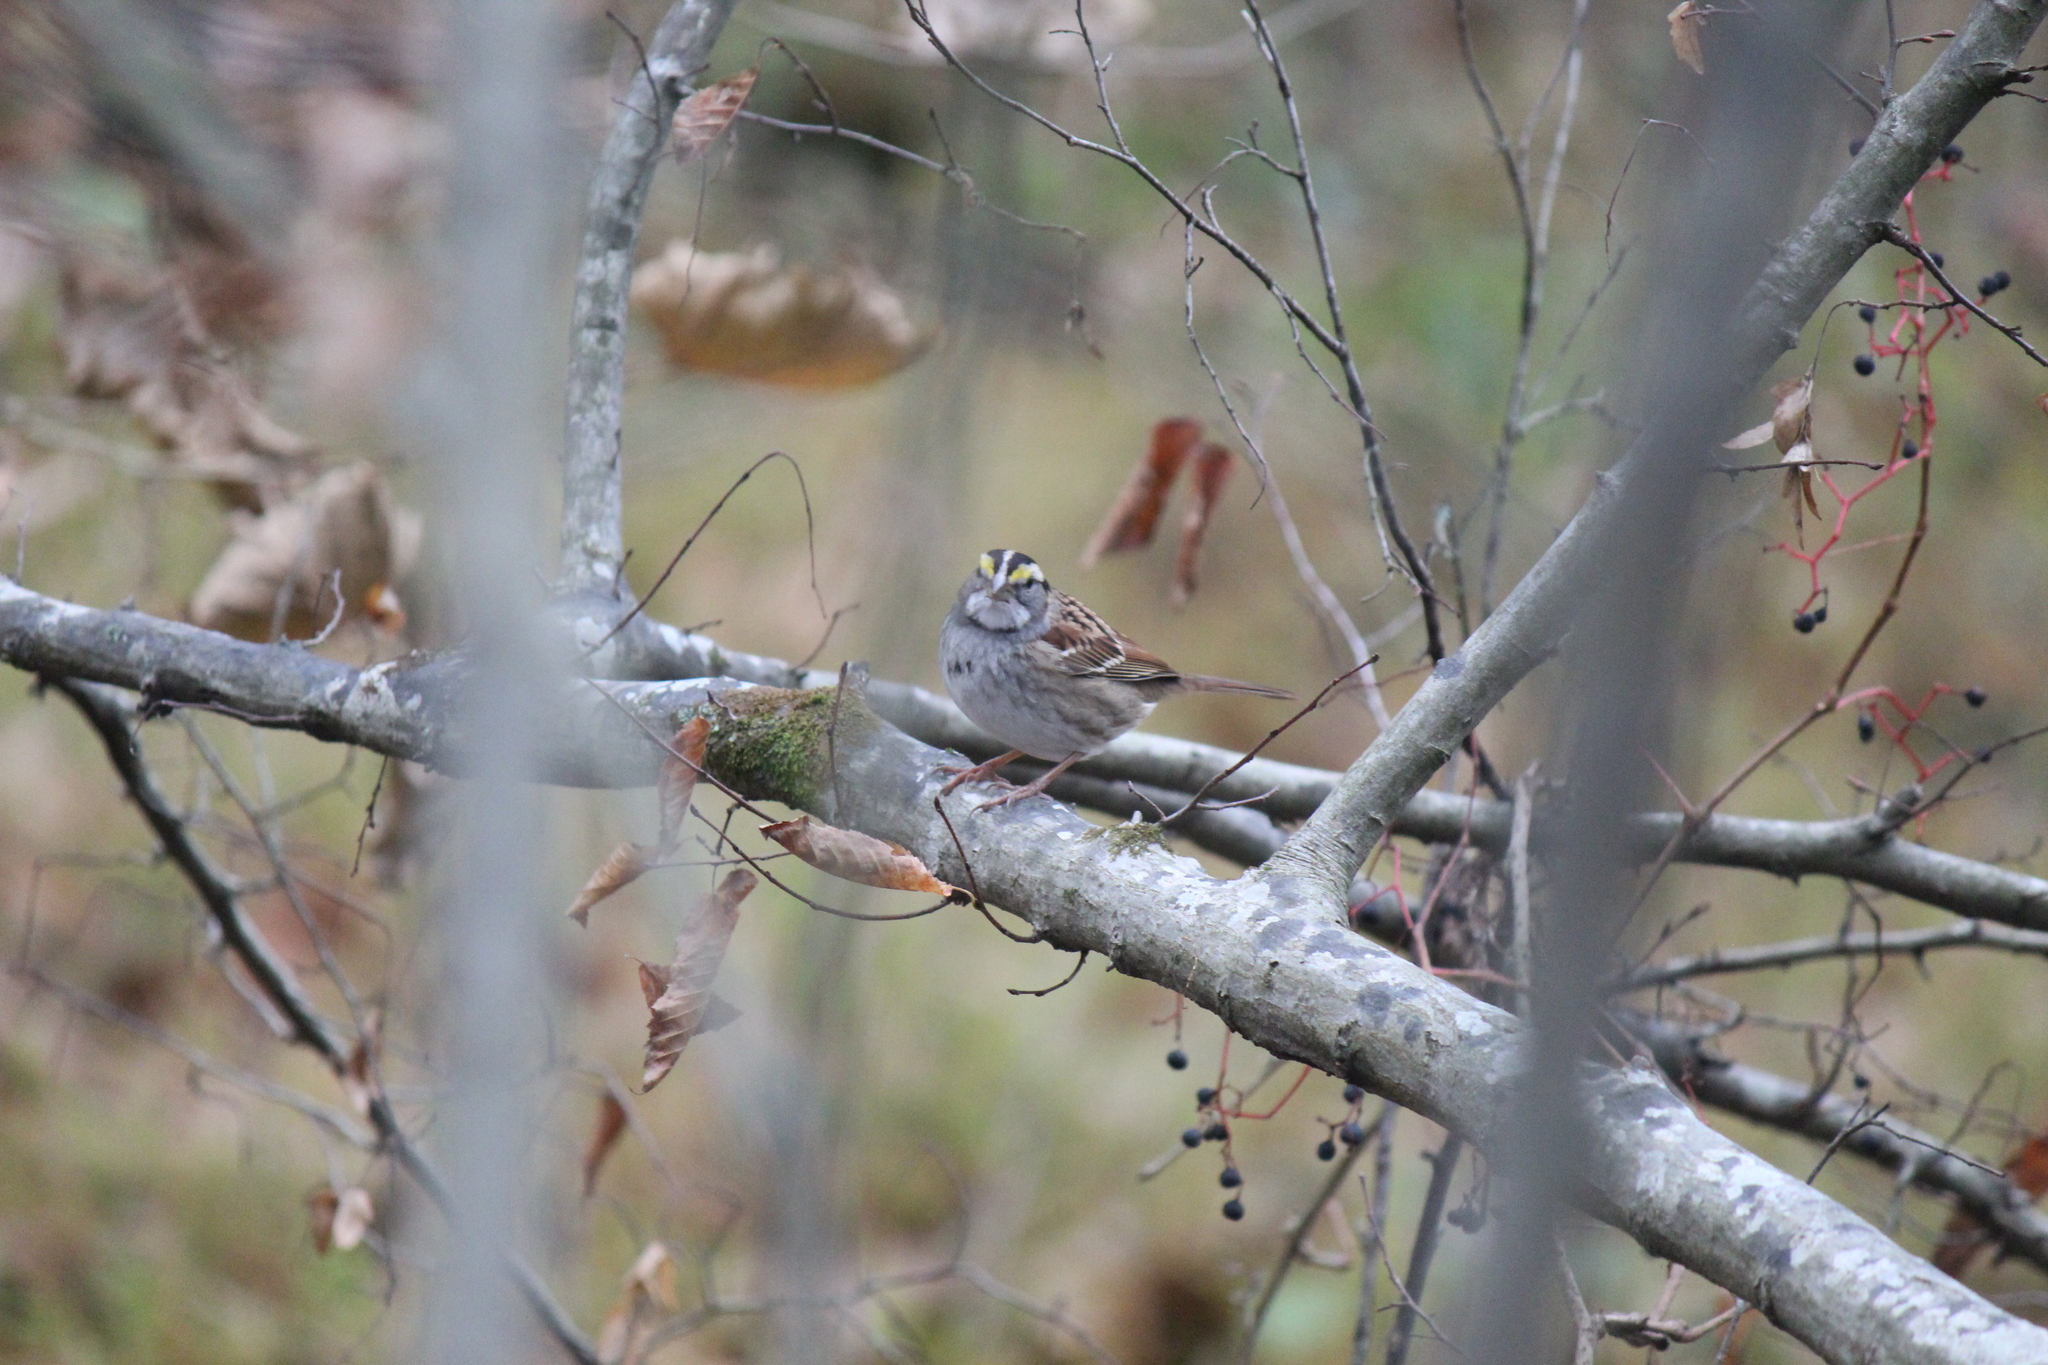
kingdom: Animalia
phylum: Chordata
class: Aves
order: Passeriformes
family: Passerellidae
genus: Zonotrichia
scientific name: Zonotrichia albicollis
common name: White-throated sparrow
